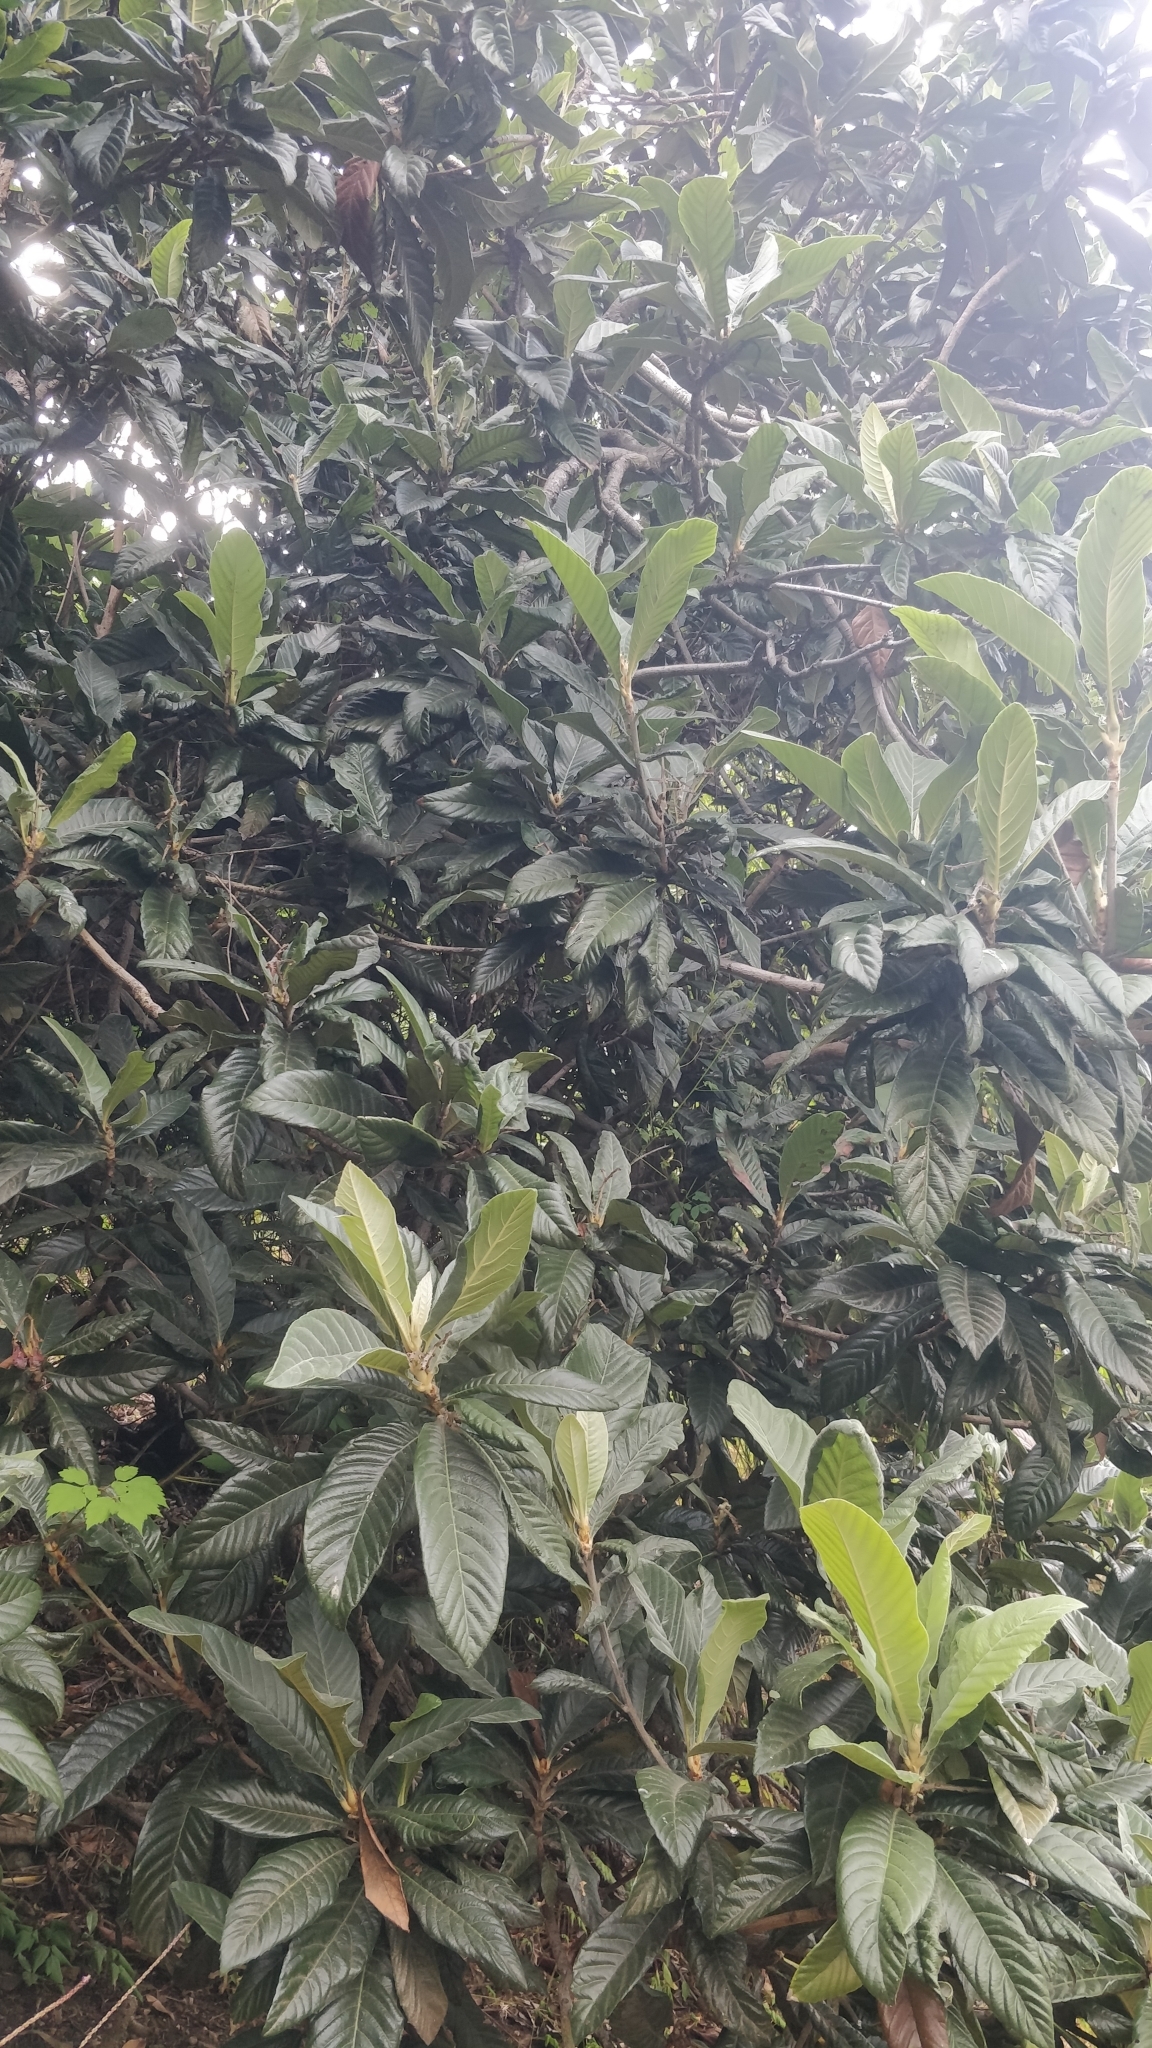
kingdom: Plantae
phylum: Tracheophyta
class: Magnoliopsida
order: Rosales
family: Rosaceae
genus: Rhaphiolepis
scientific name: Rhaphiolepis bibas
